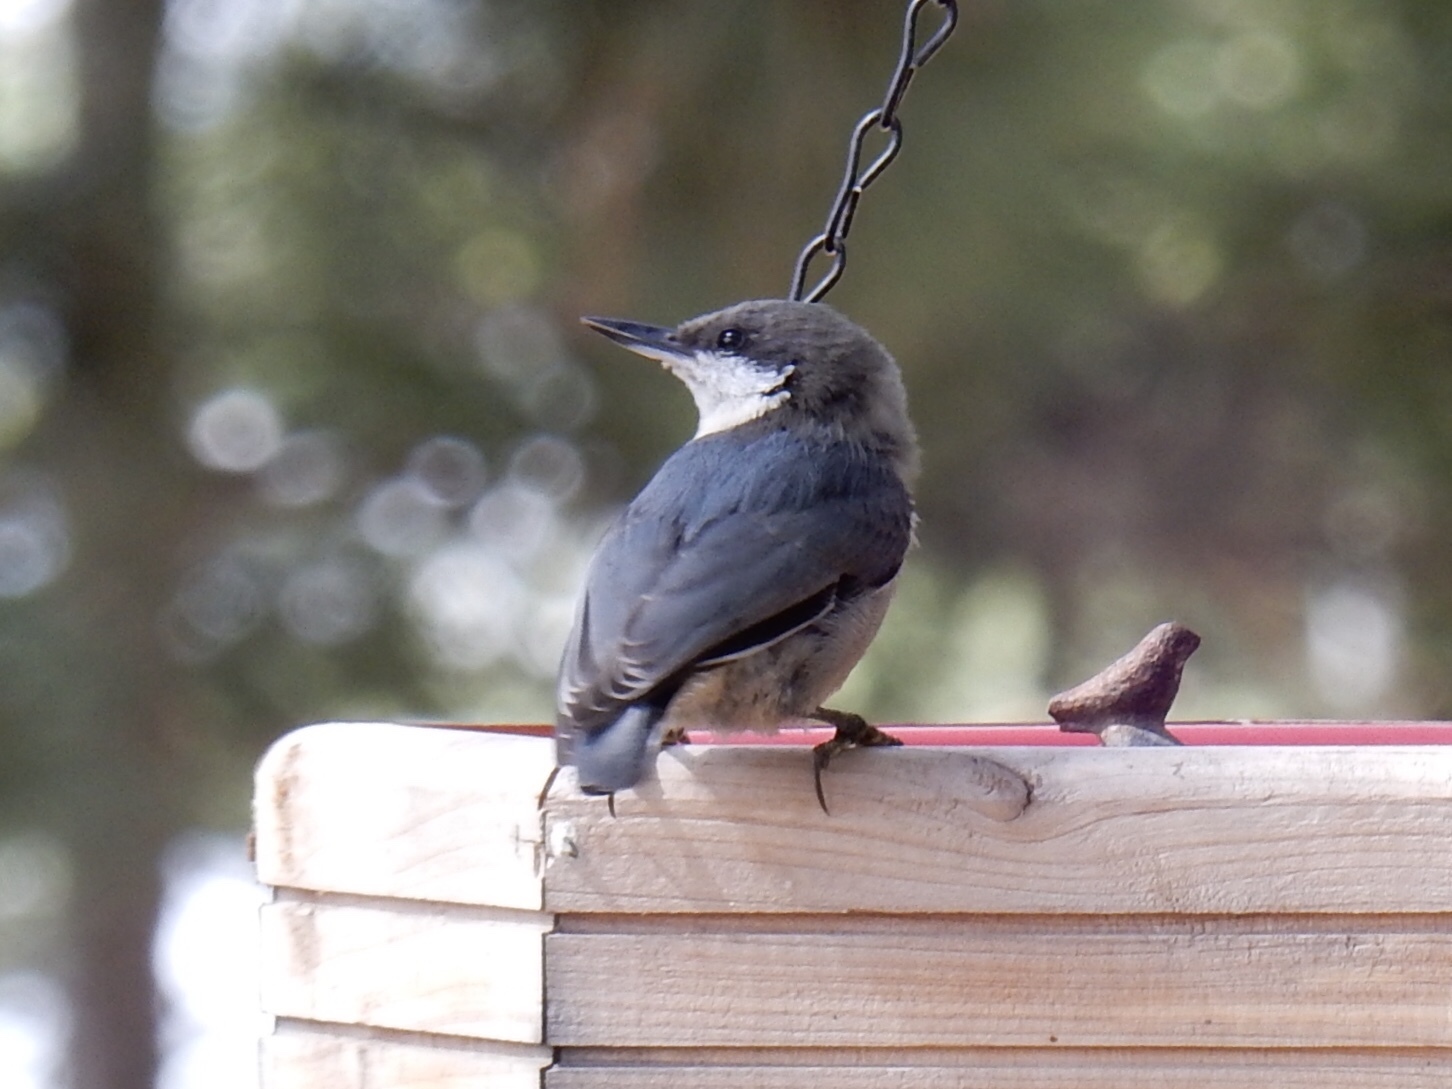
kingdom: Animalia
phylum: Chordata
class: Aves
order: Passeriformes
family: Sittidae
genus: Sitta
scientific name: Sitta pygmaea
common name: Pygmy nuthatch
